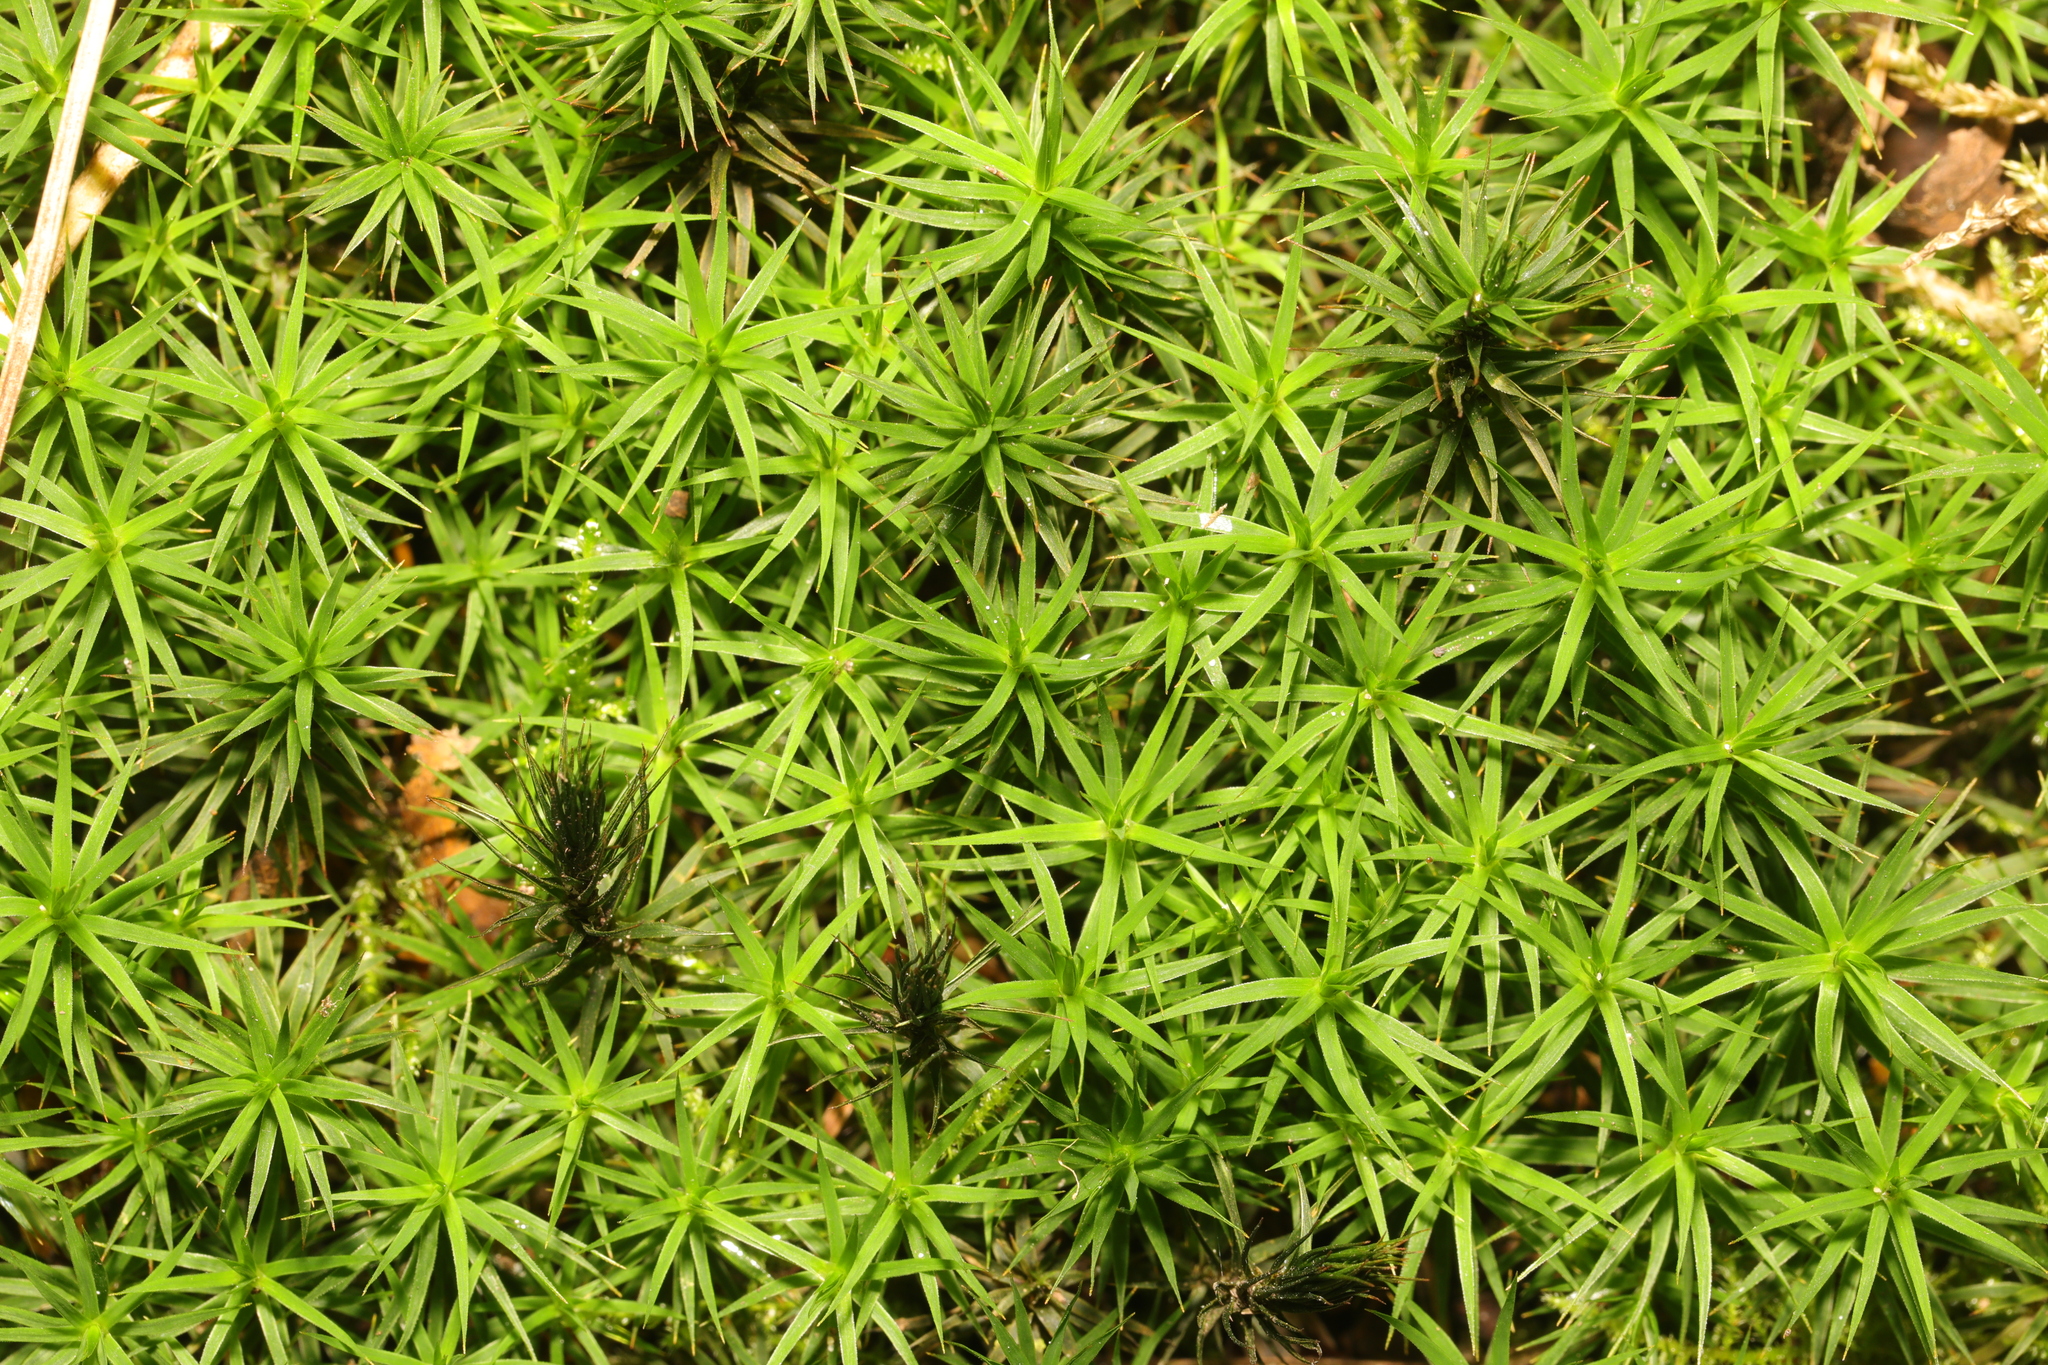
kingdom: Plantae
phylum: Bryophyta
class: Polytrichopsida
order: Polytrichales
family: Polytrichaceae
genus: Polytrichum
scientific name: Polytrichum formosum
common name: Bank haircap moss
